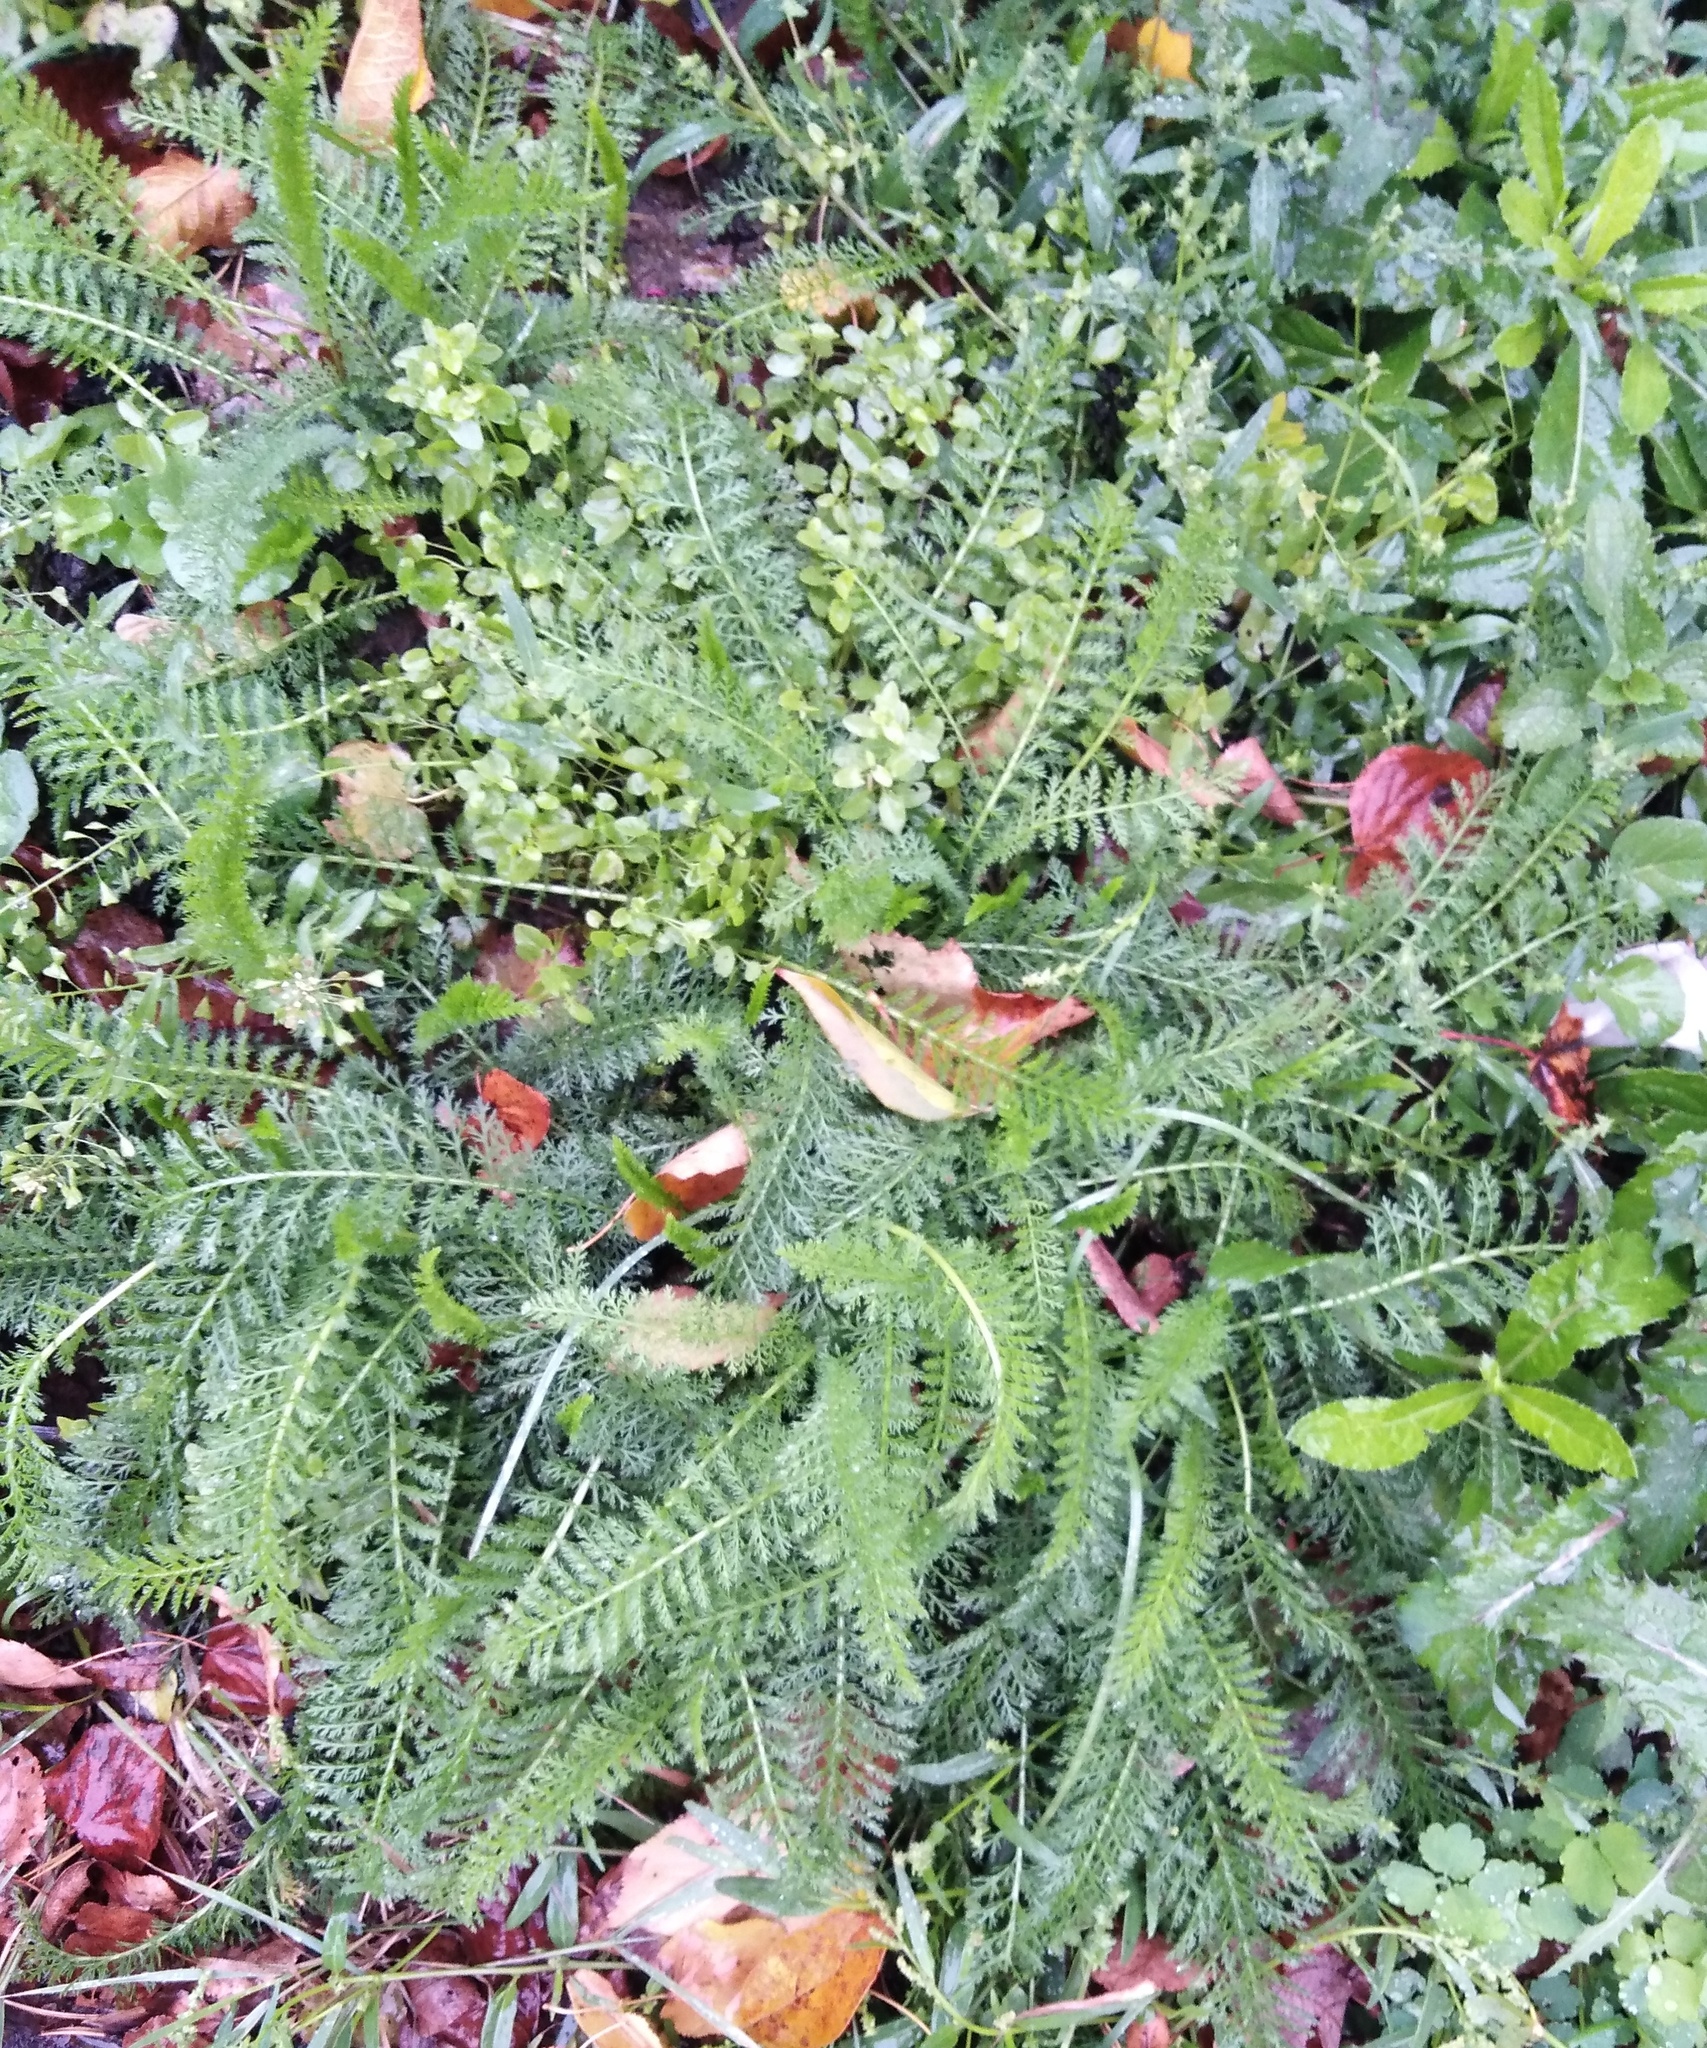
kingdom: Plantae
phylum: Tracheophyta
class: Magnoliopsida
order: Asterales
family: Asteraceae
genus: Achillea
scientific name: Achillea millefolium
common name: Yarrow
